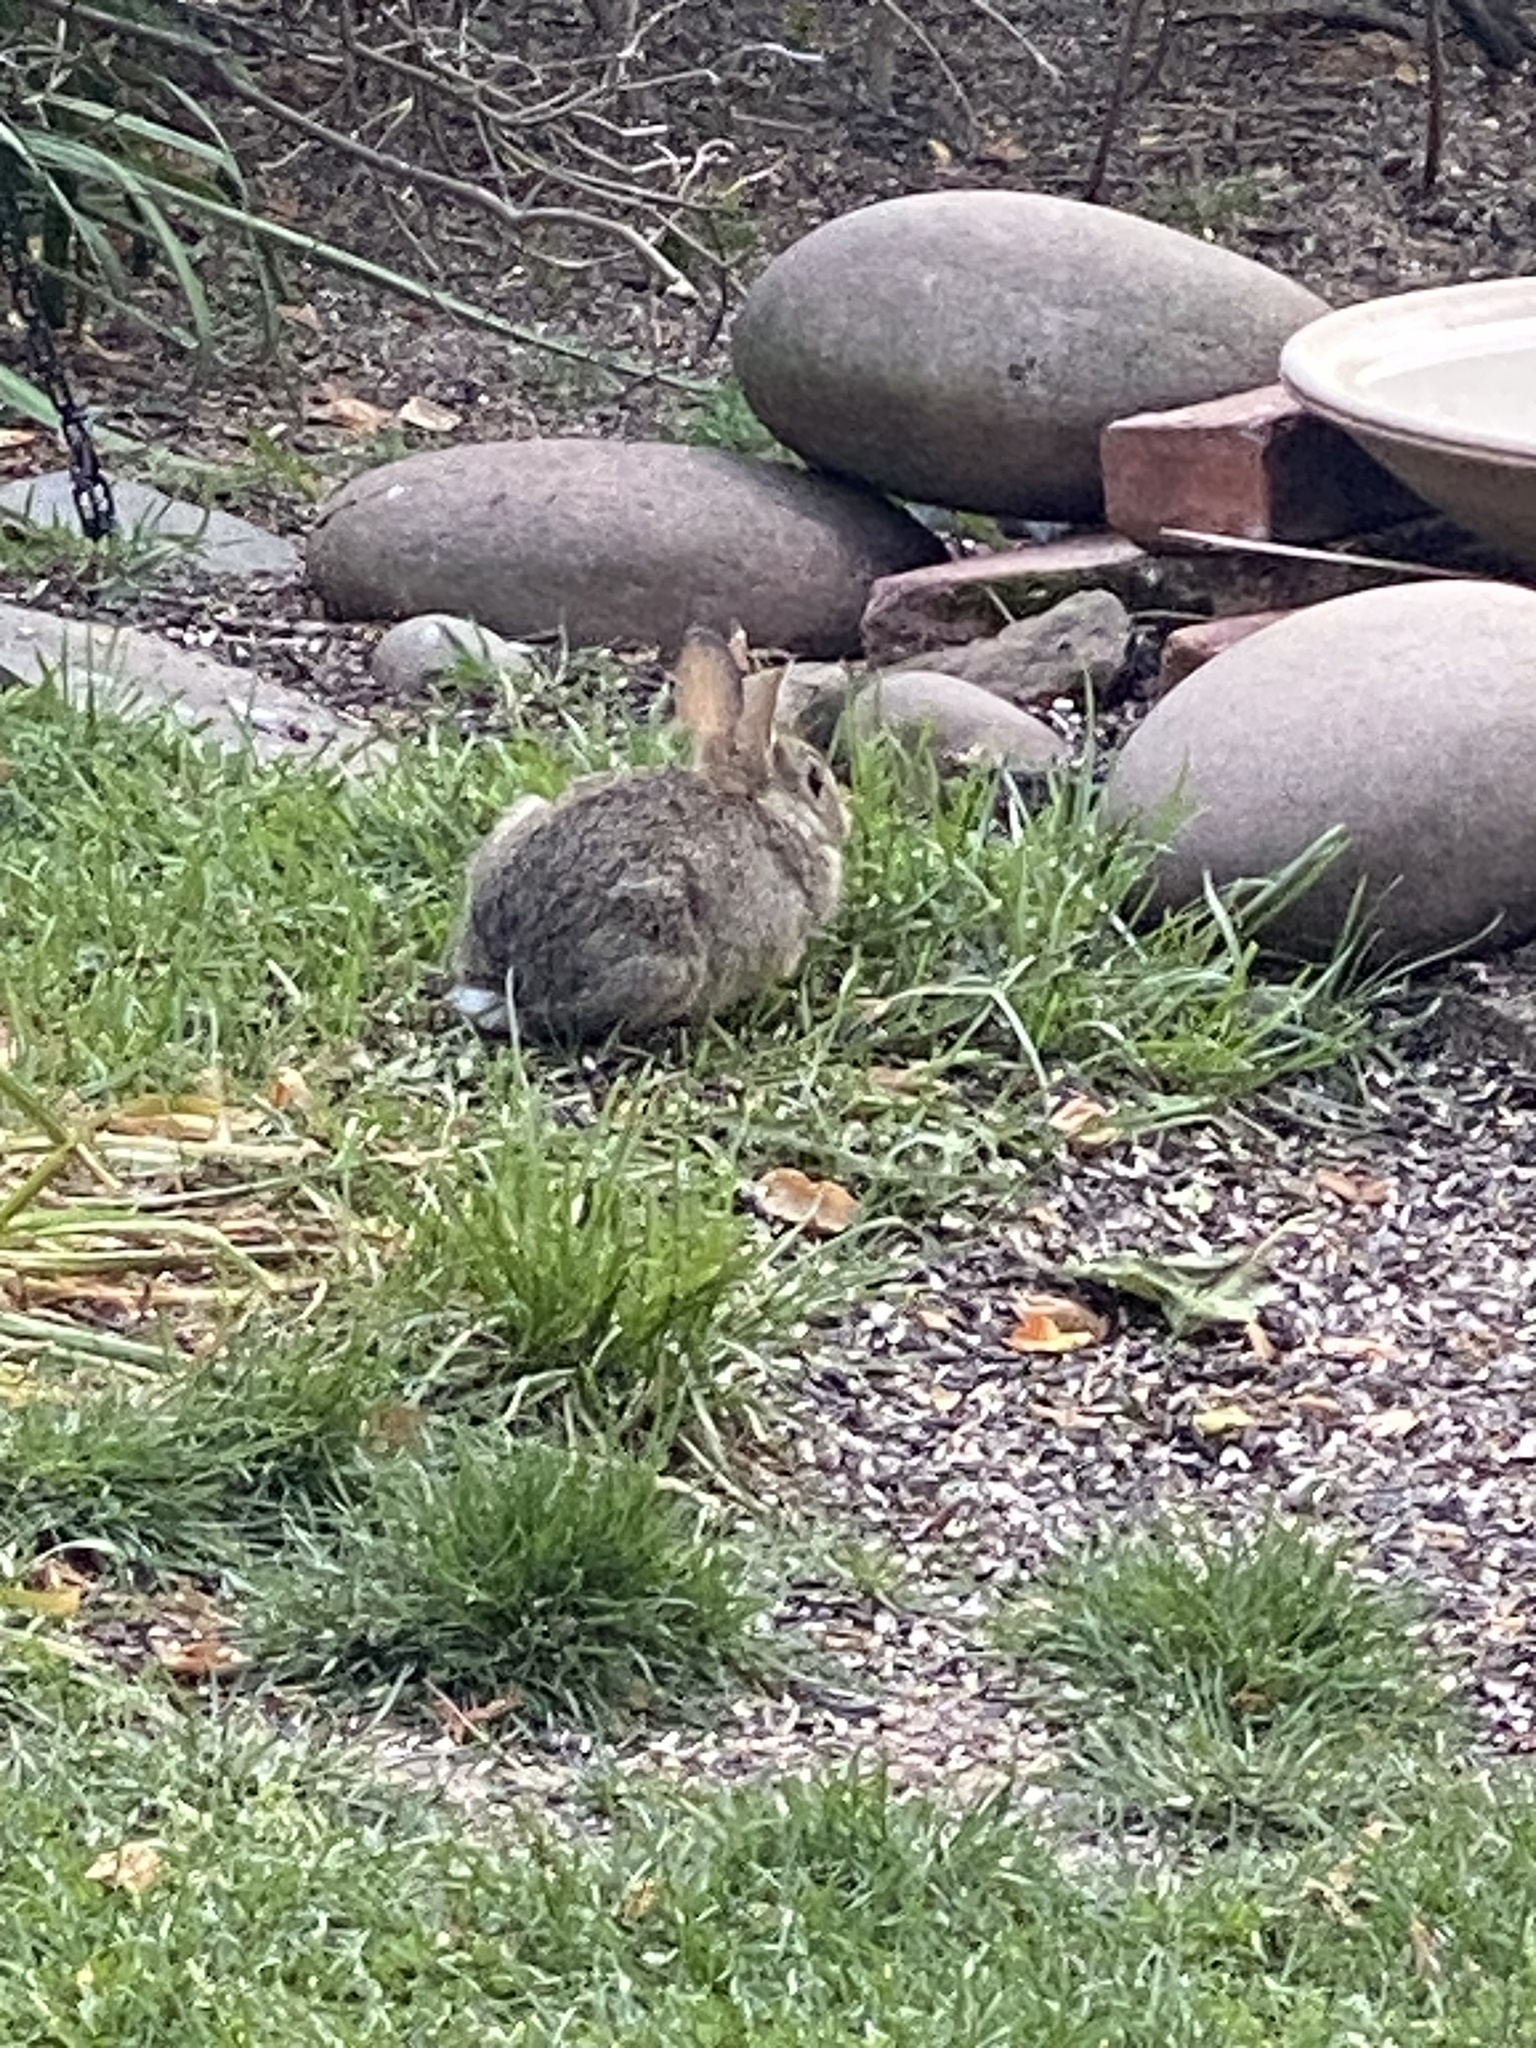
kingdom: Animalia
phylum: Chordata
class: Mammalia
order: Lagomorpha
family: Leporidae
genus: Sylvilagus
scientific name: Sylvilagus floridanus
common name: Eastern cottontail
